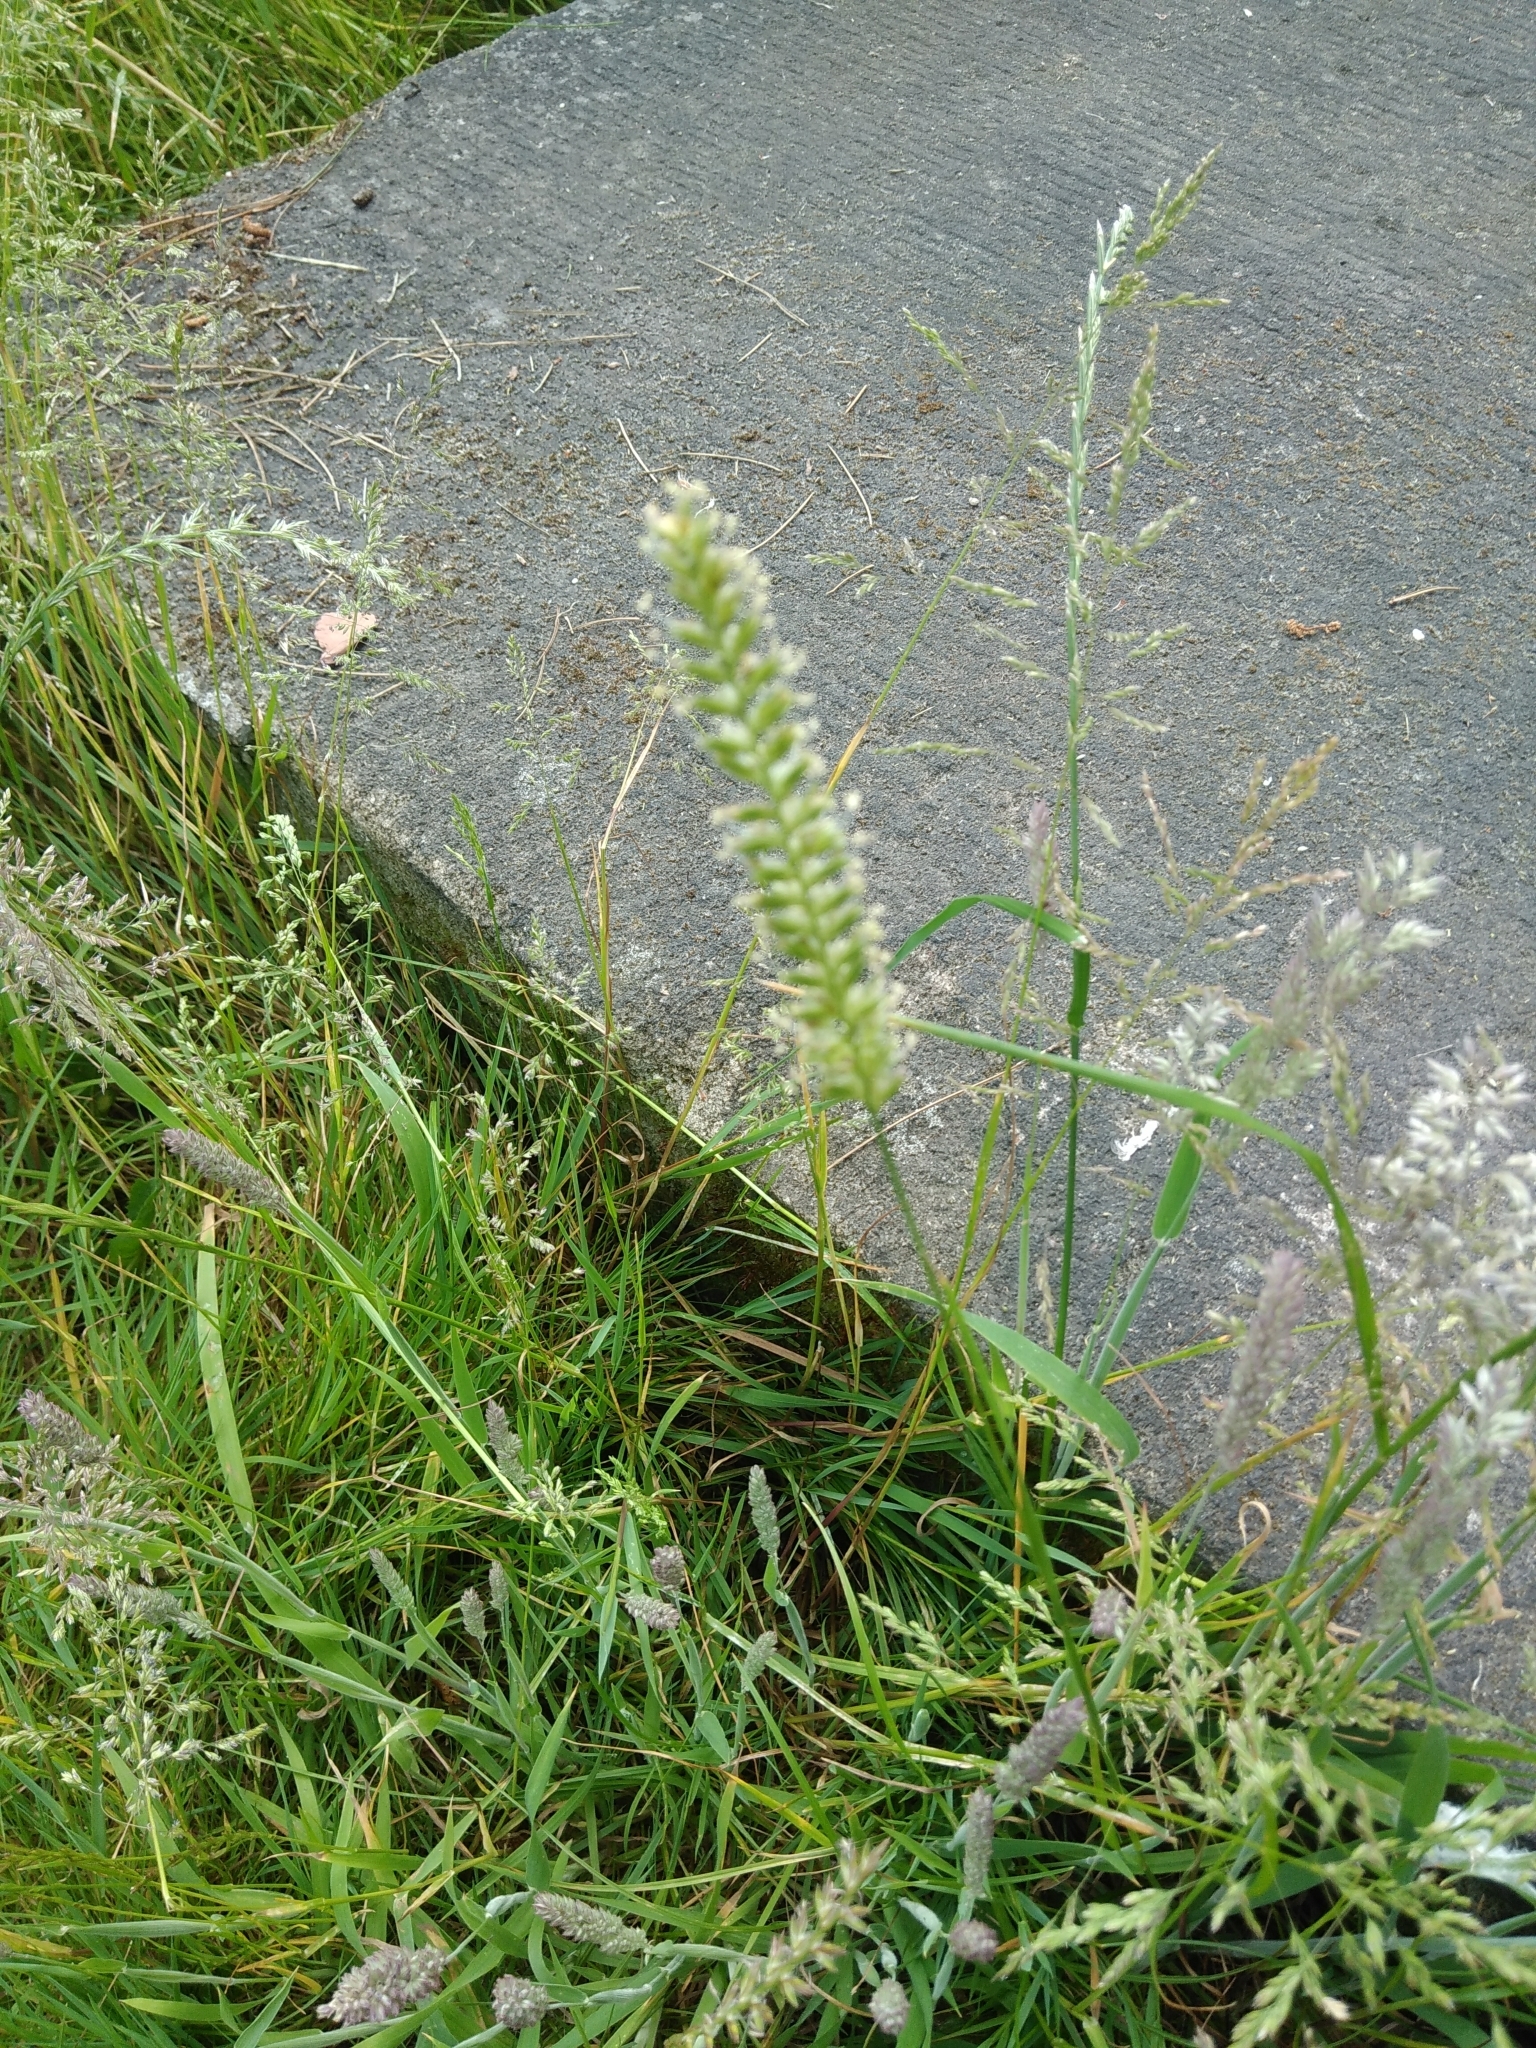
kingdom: Plantae
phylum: Tracheophyta
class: Liliopsida
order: Poales
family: Poaceae
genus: Cynosurus
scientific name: Cynosurus cristatus
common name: Crested dog's-tail
